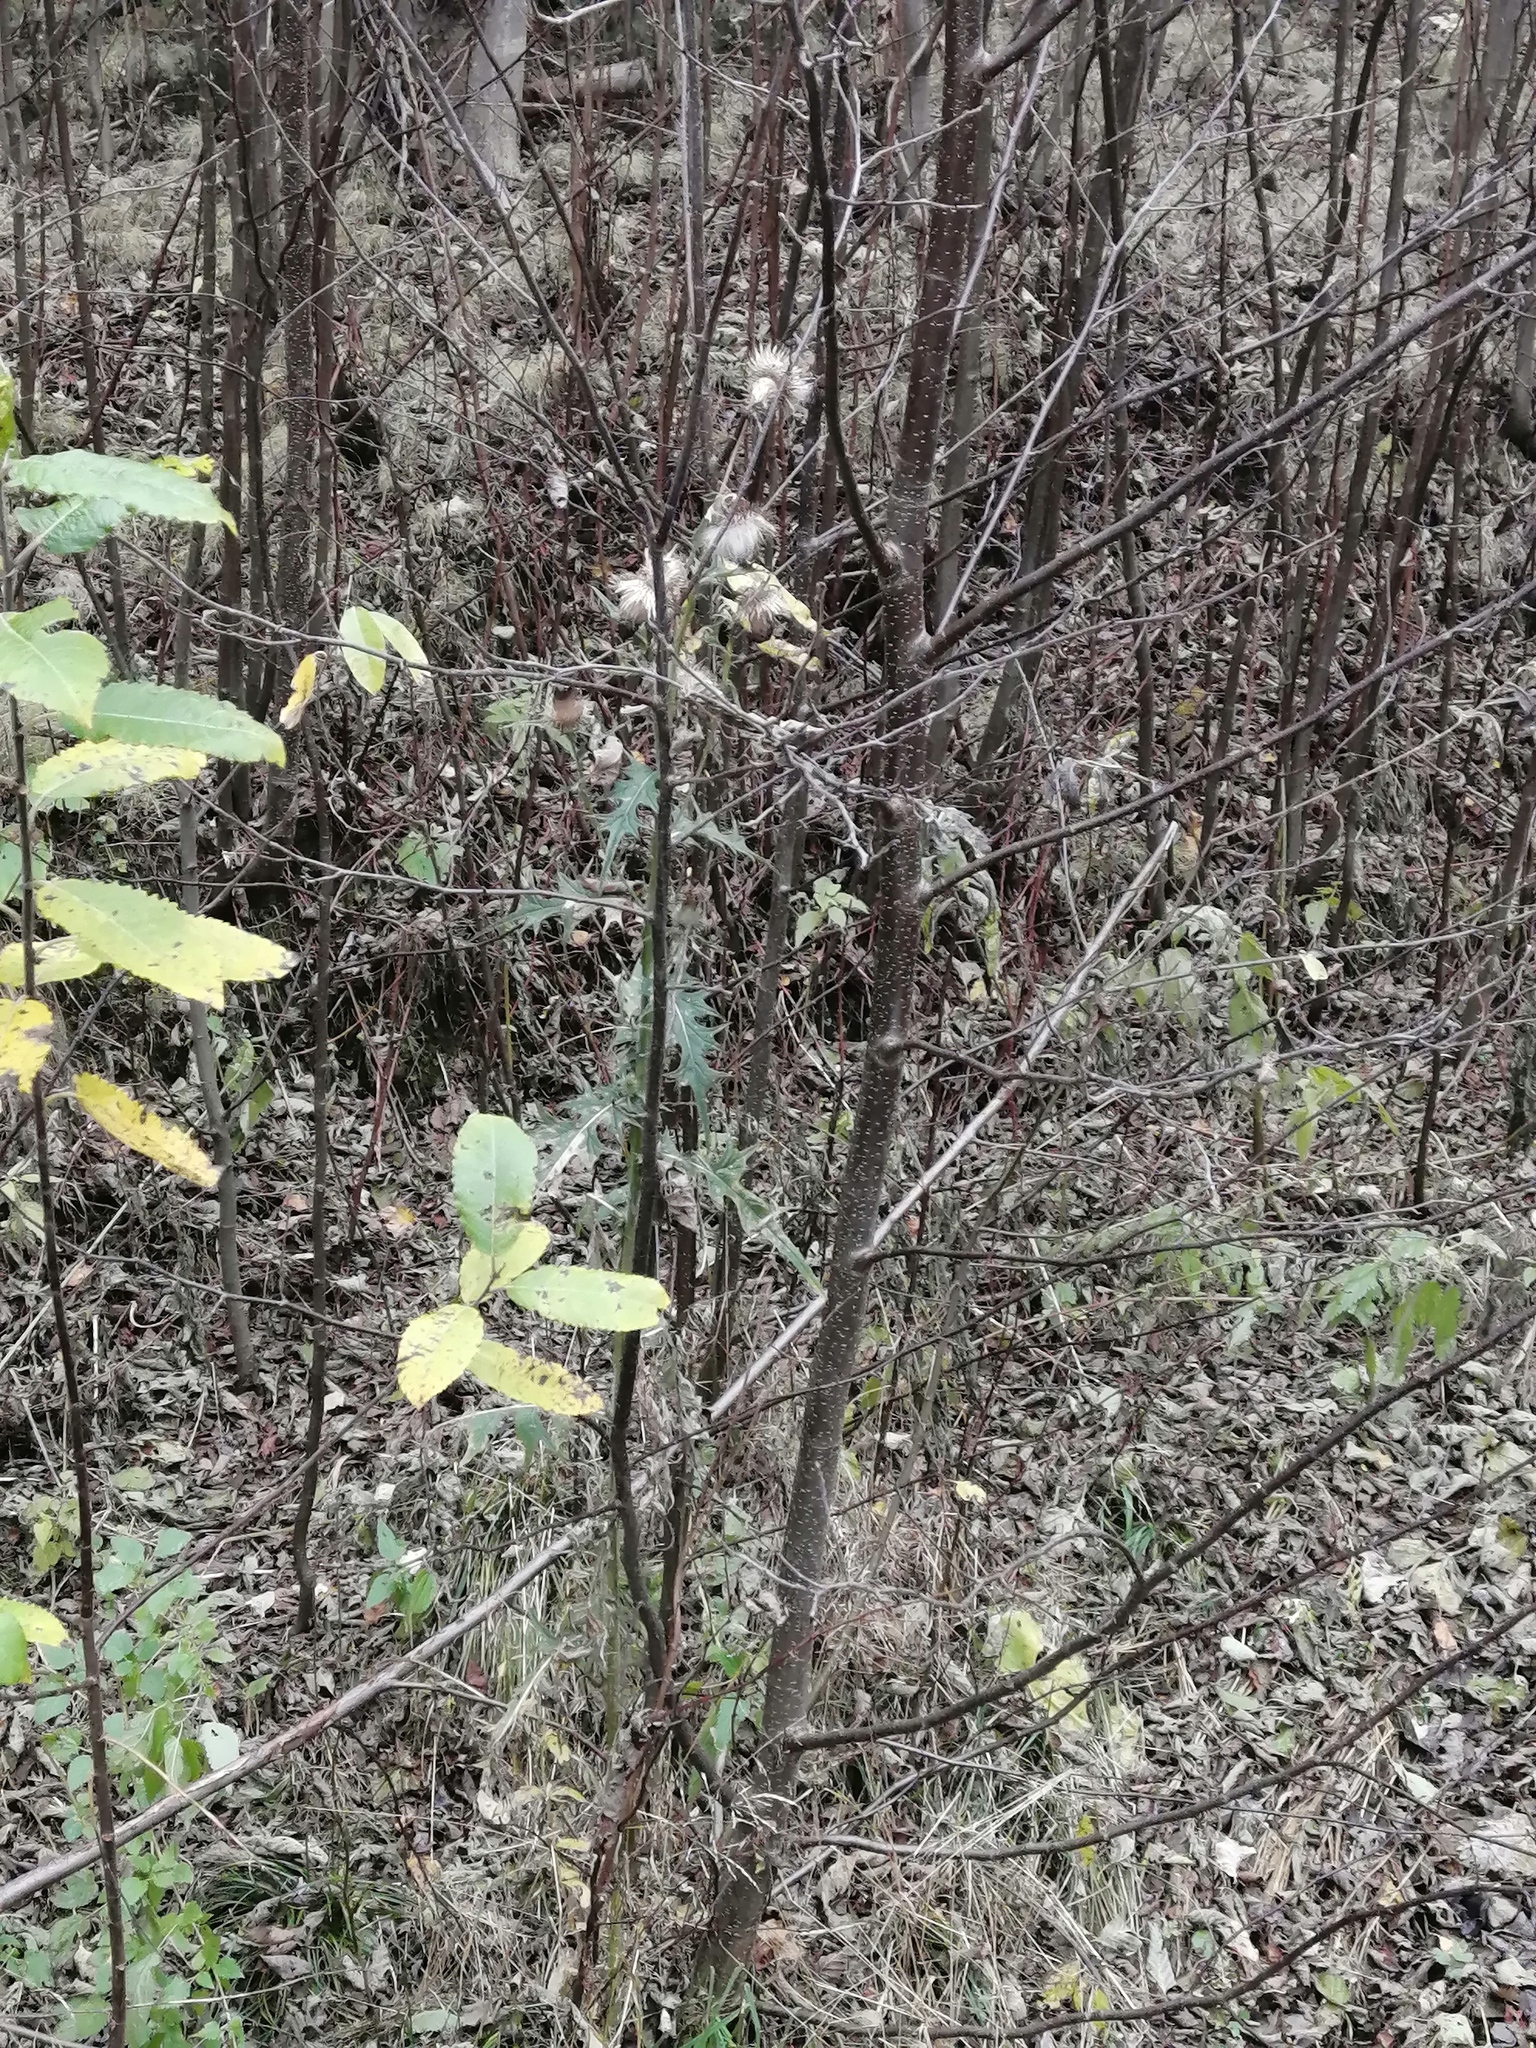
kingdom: Plantae
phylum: Tracheophyta
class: Magnoliopsida
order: Asterales
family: Asteraceae
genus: Cirsium
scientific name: Cirsium vulgare
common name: Bull thistle
